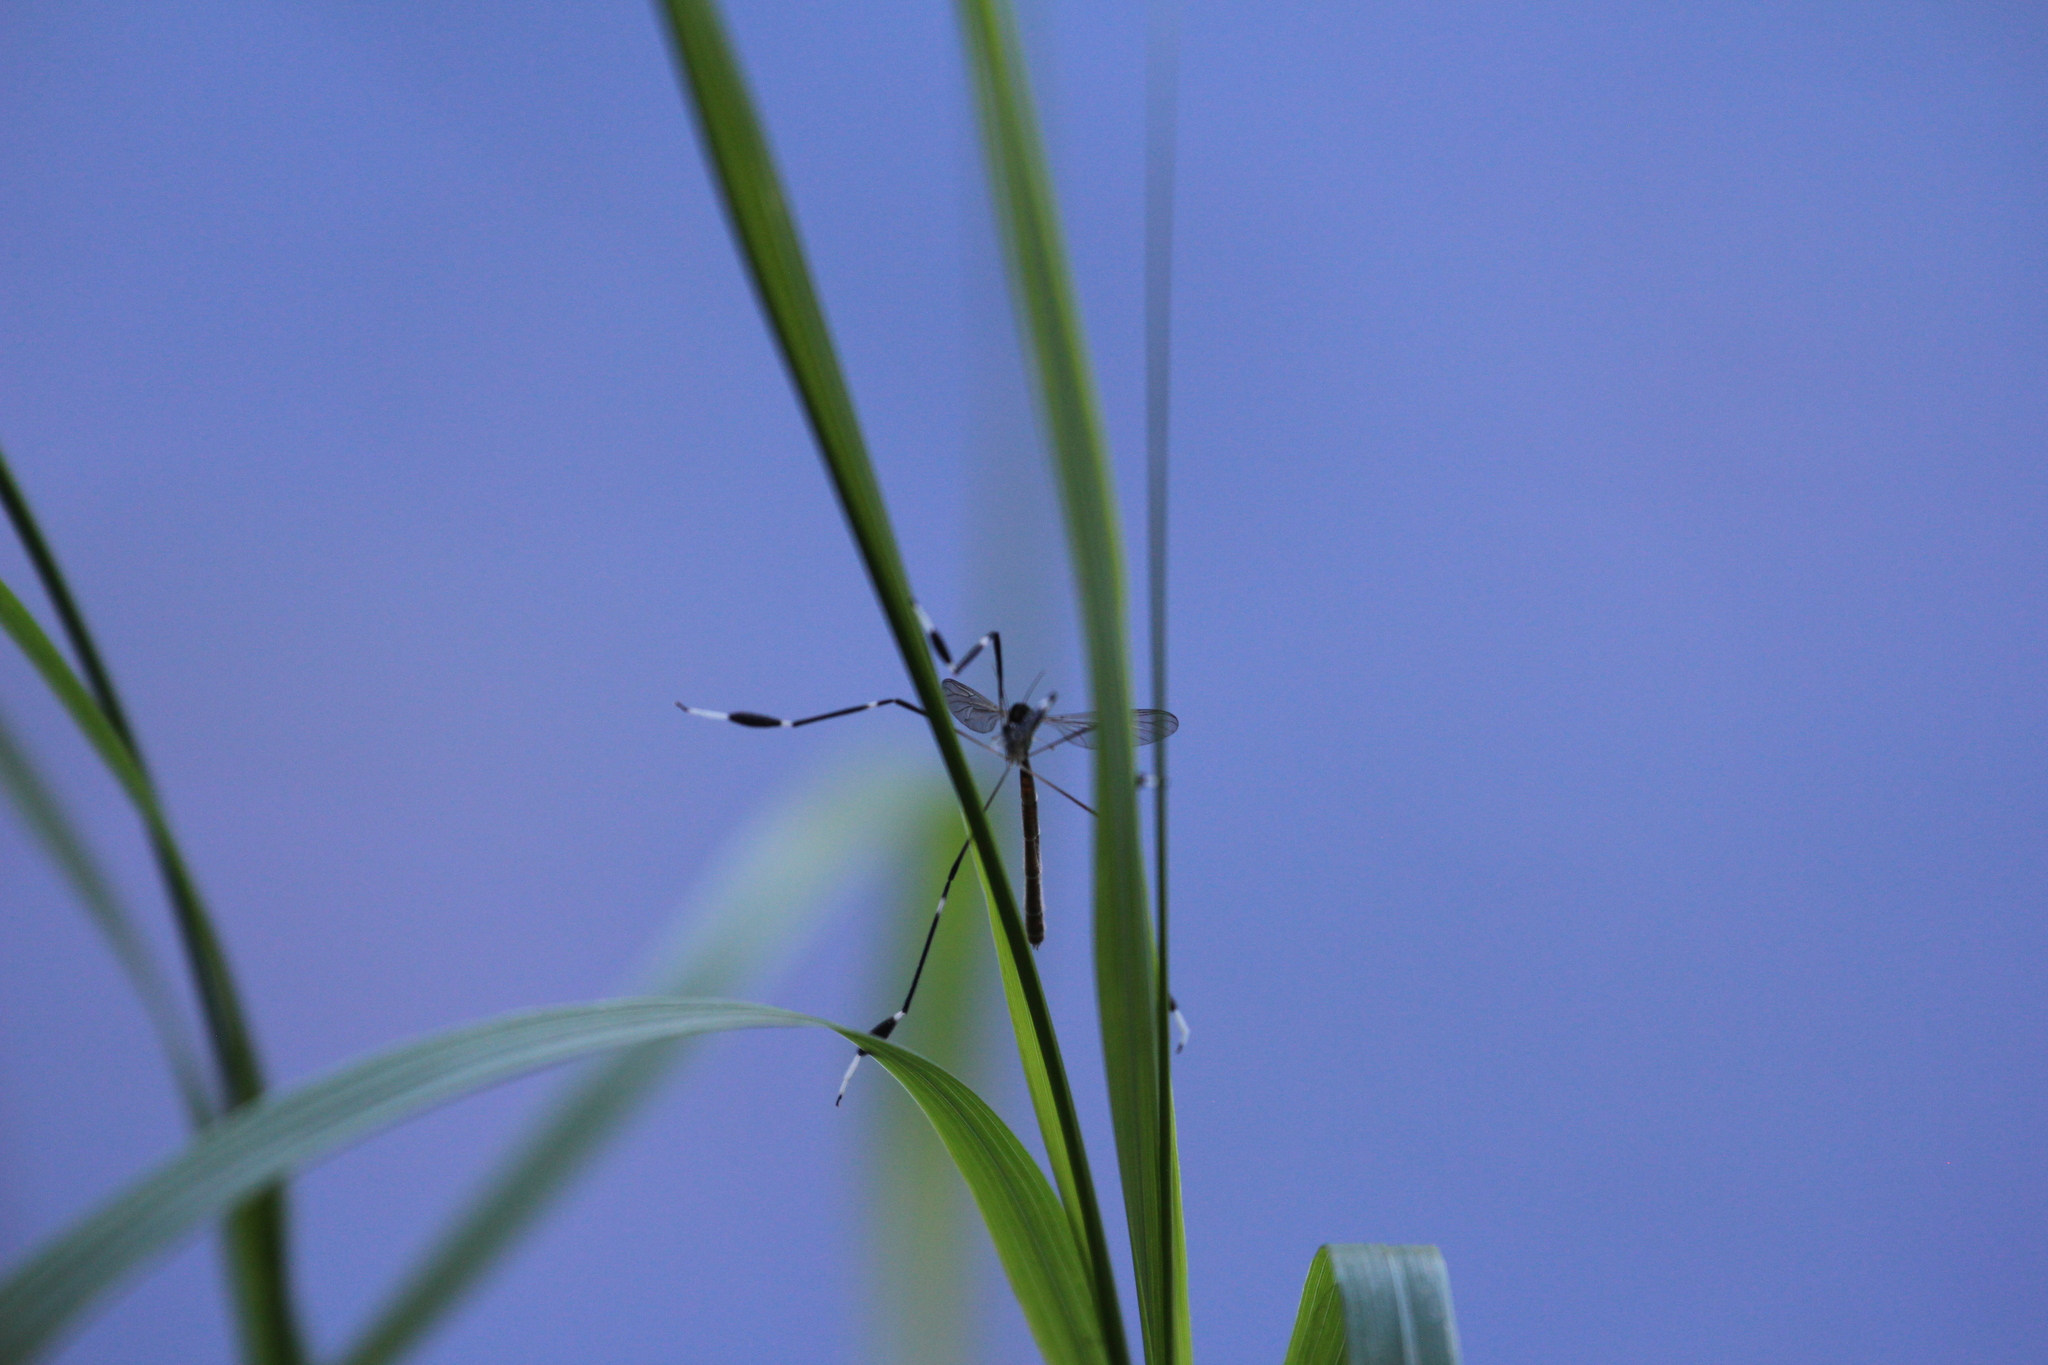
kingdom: Animalia
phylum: Arthropoda
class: Insecta
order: Diptera
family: Ptychopteridae
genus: Bittacomorpha
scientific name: Bittacomorpha clavipes
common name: Eastern phantom crane fly
